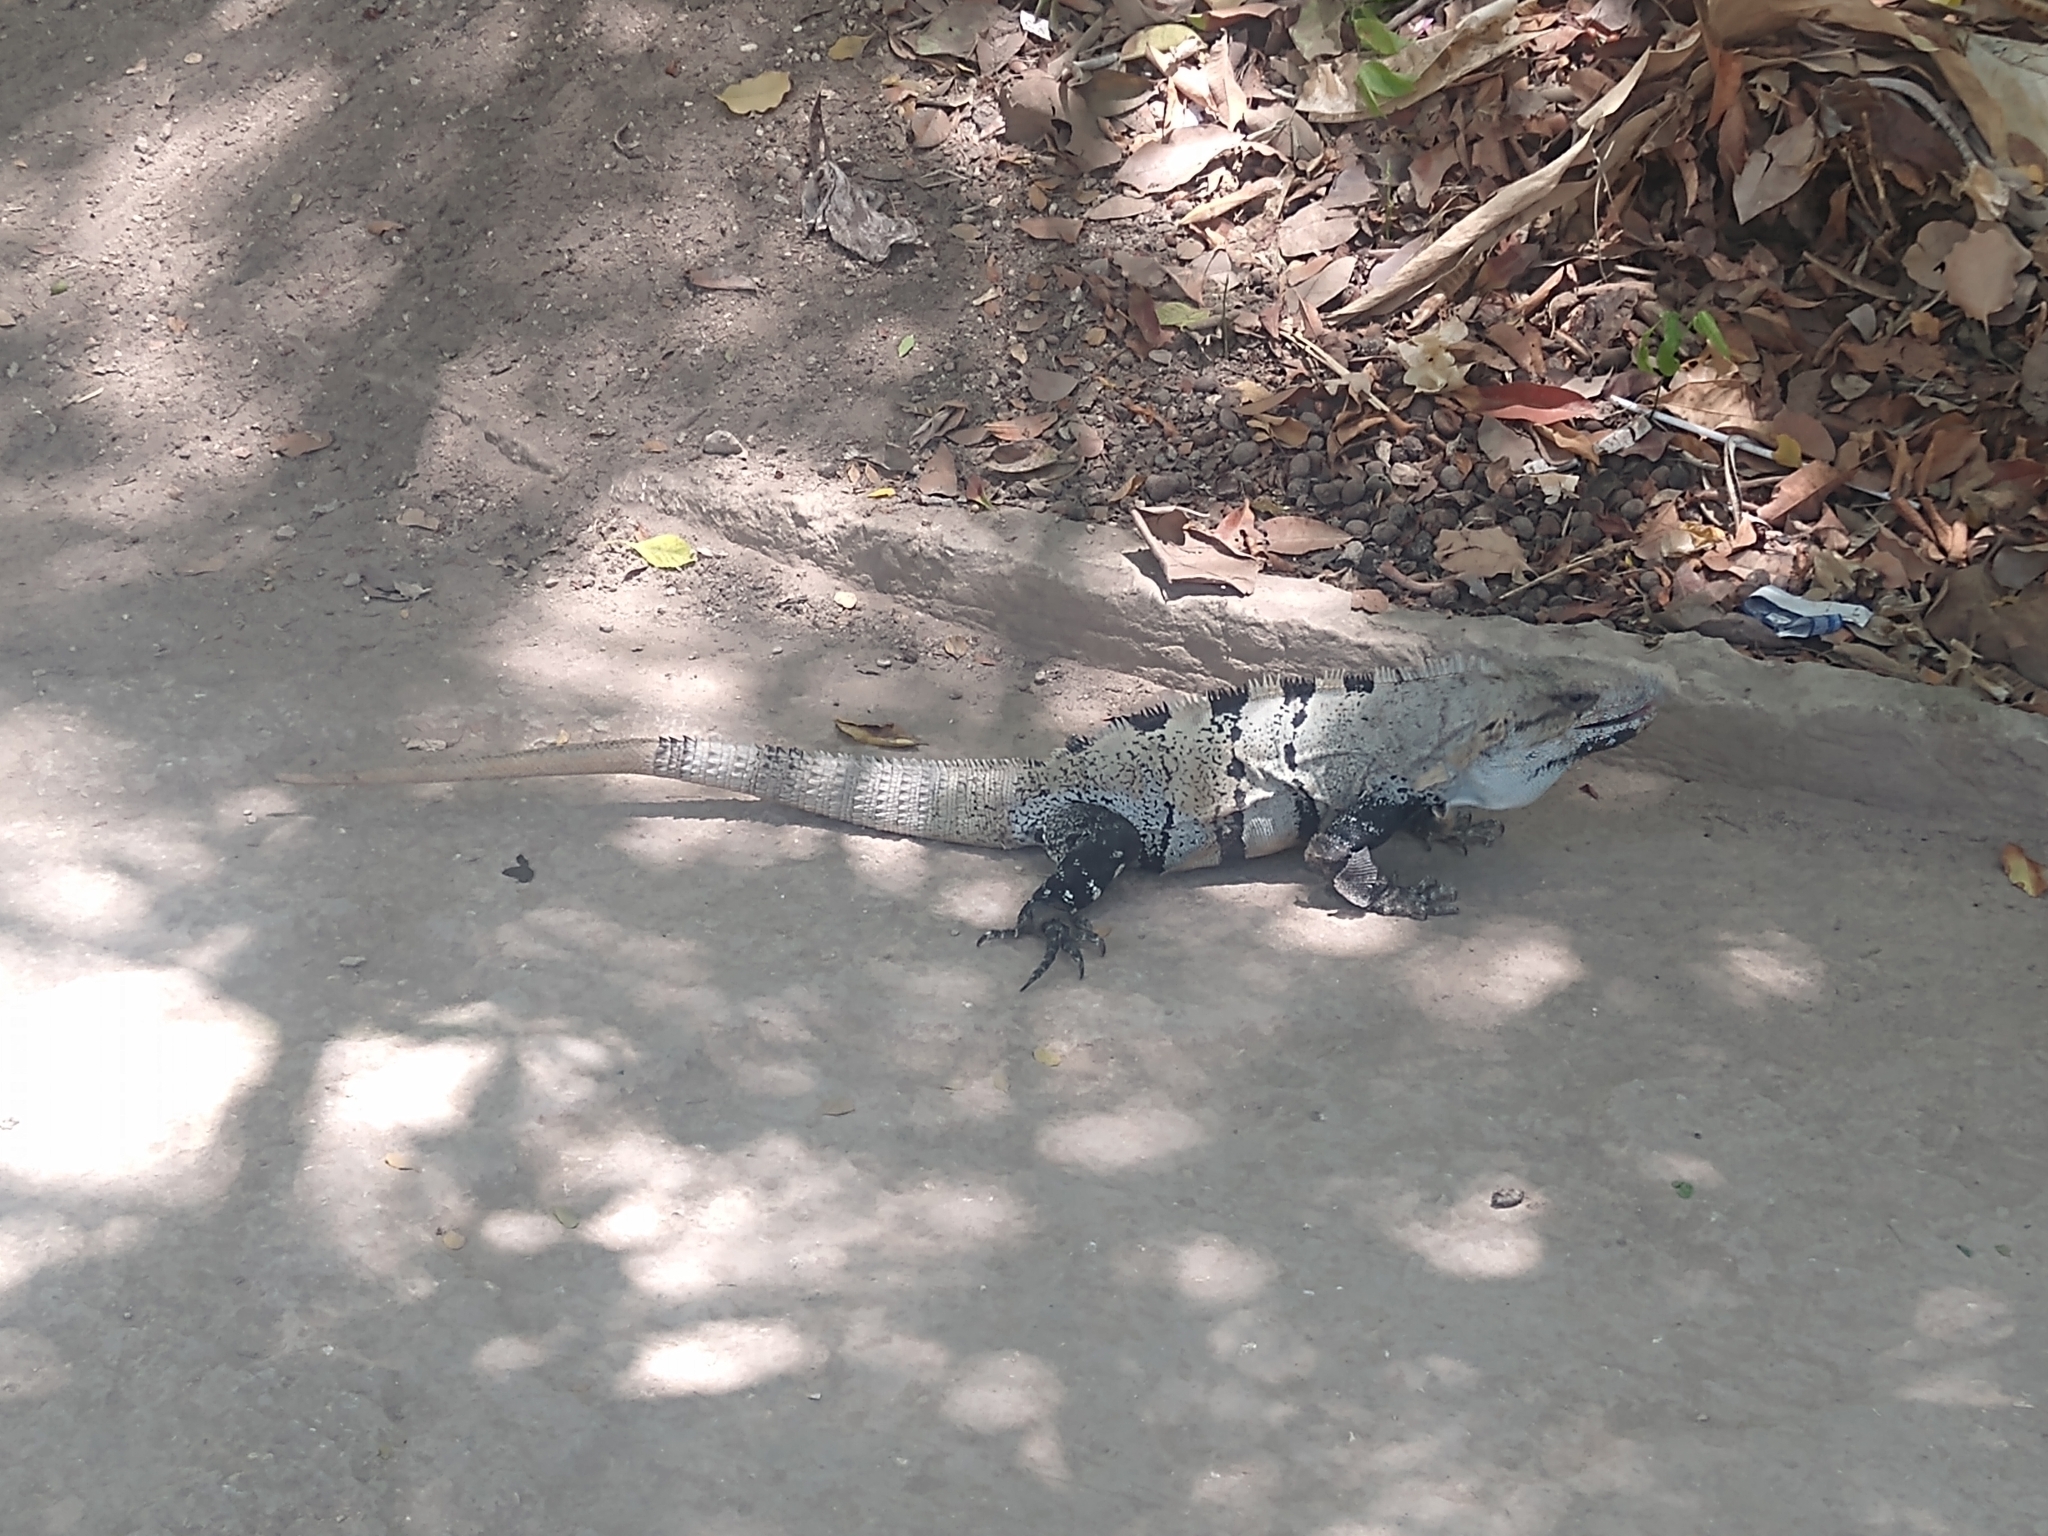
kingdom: Animalia
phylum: Chordata
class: Squamata
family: Iguanidae
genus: Ctenosaura
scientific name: Ctenosaura similis
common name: Black spiny-tailed iguana
